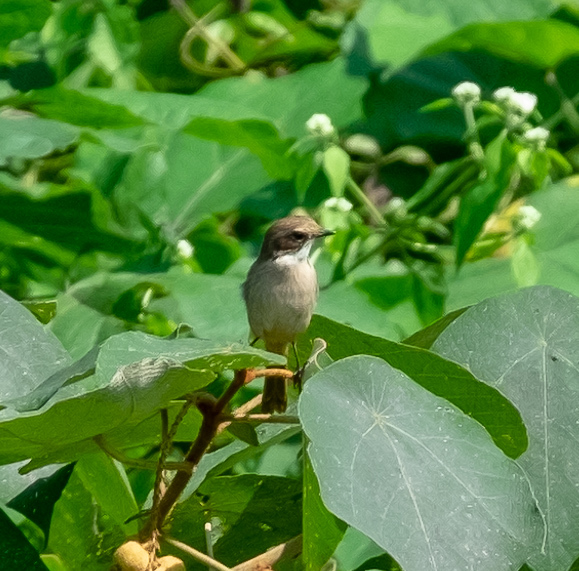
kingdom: Animalia
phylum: Chordata
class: Aves
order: Passeriformes
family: Muscicapidae
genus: Saxicola
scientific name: Saxicola ferreus
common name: Grey bush chat
